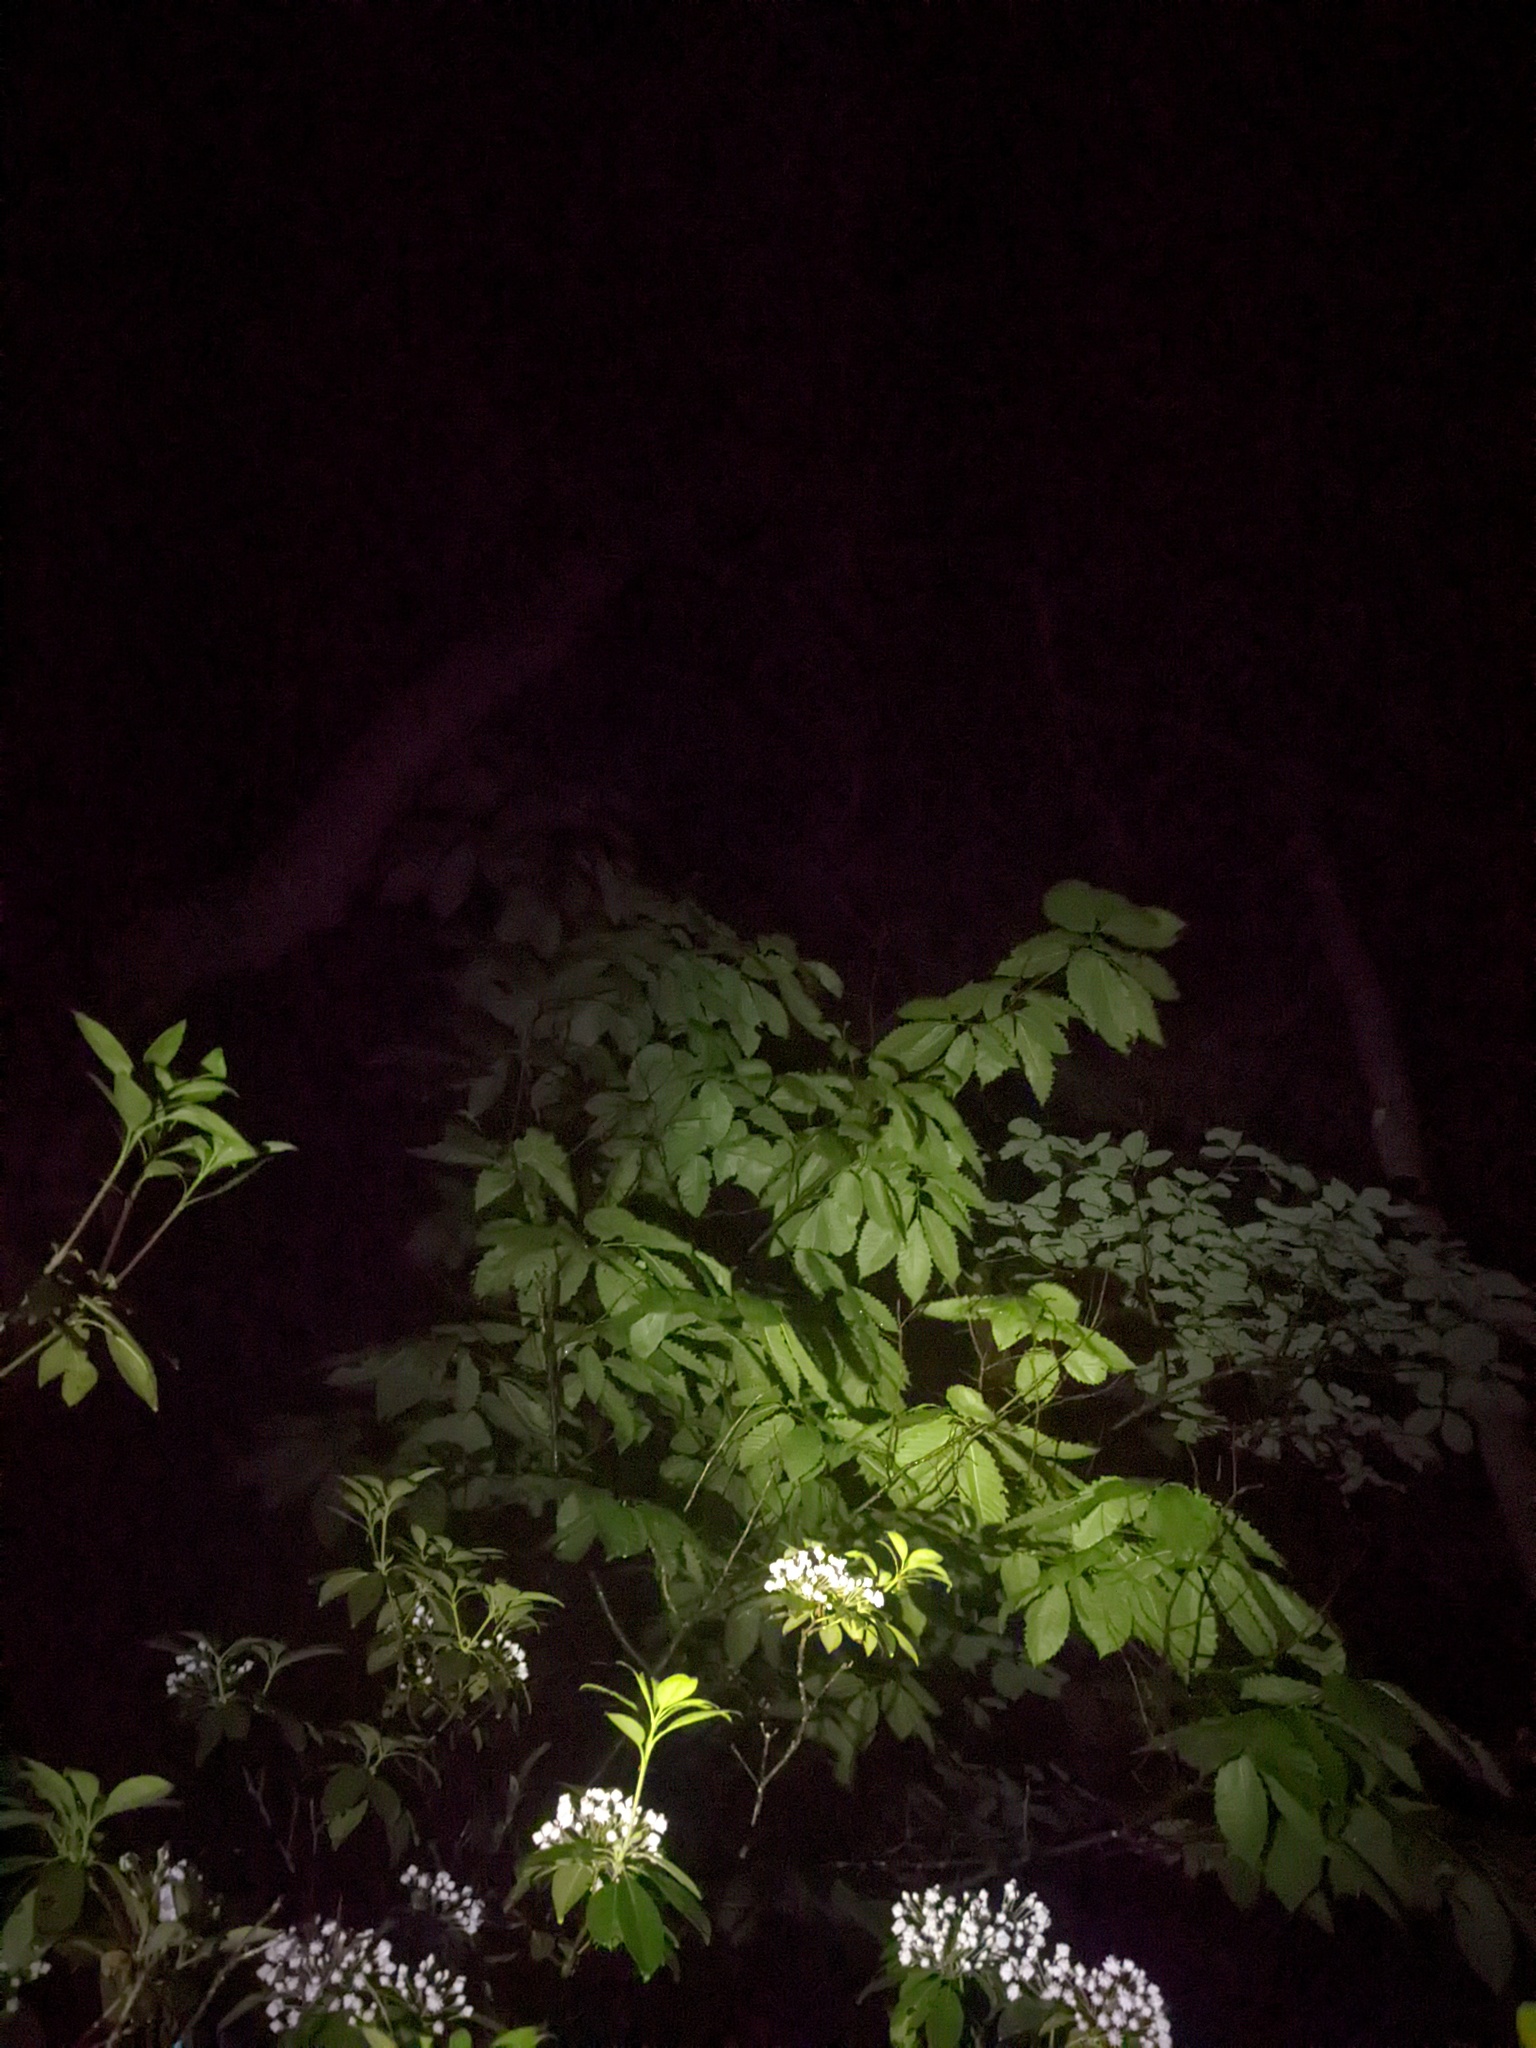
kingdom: Plantae
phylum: Tracheophyta
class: Magnoliopsida
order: Fagales
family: Fagaceae
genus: Castanea
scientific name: Castanea dentata
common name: American chestnut
